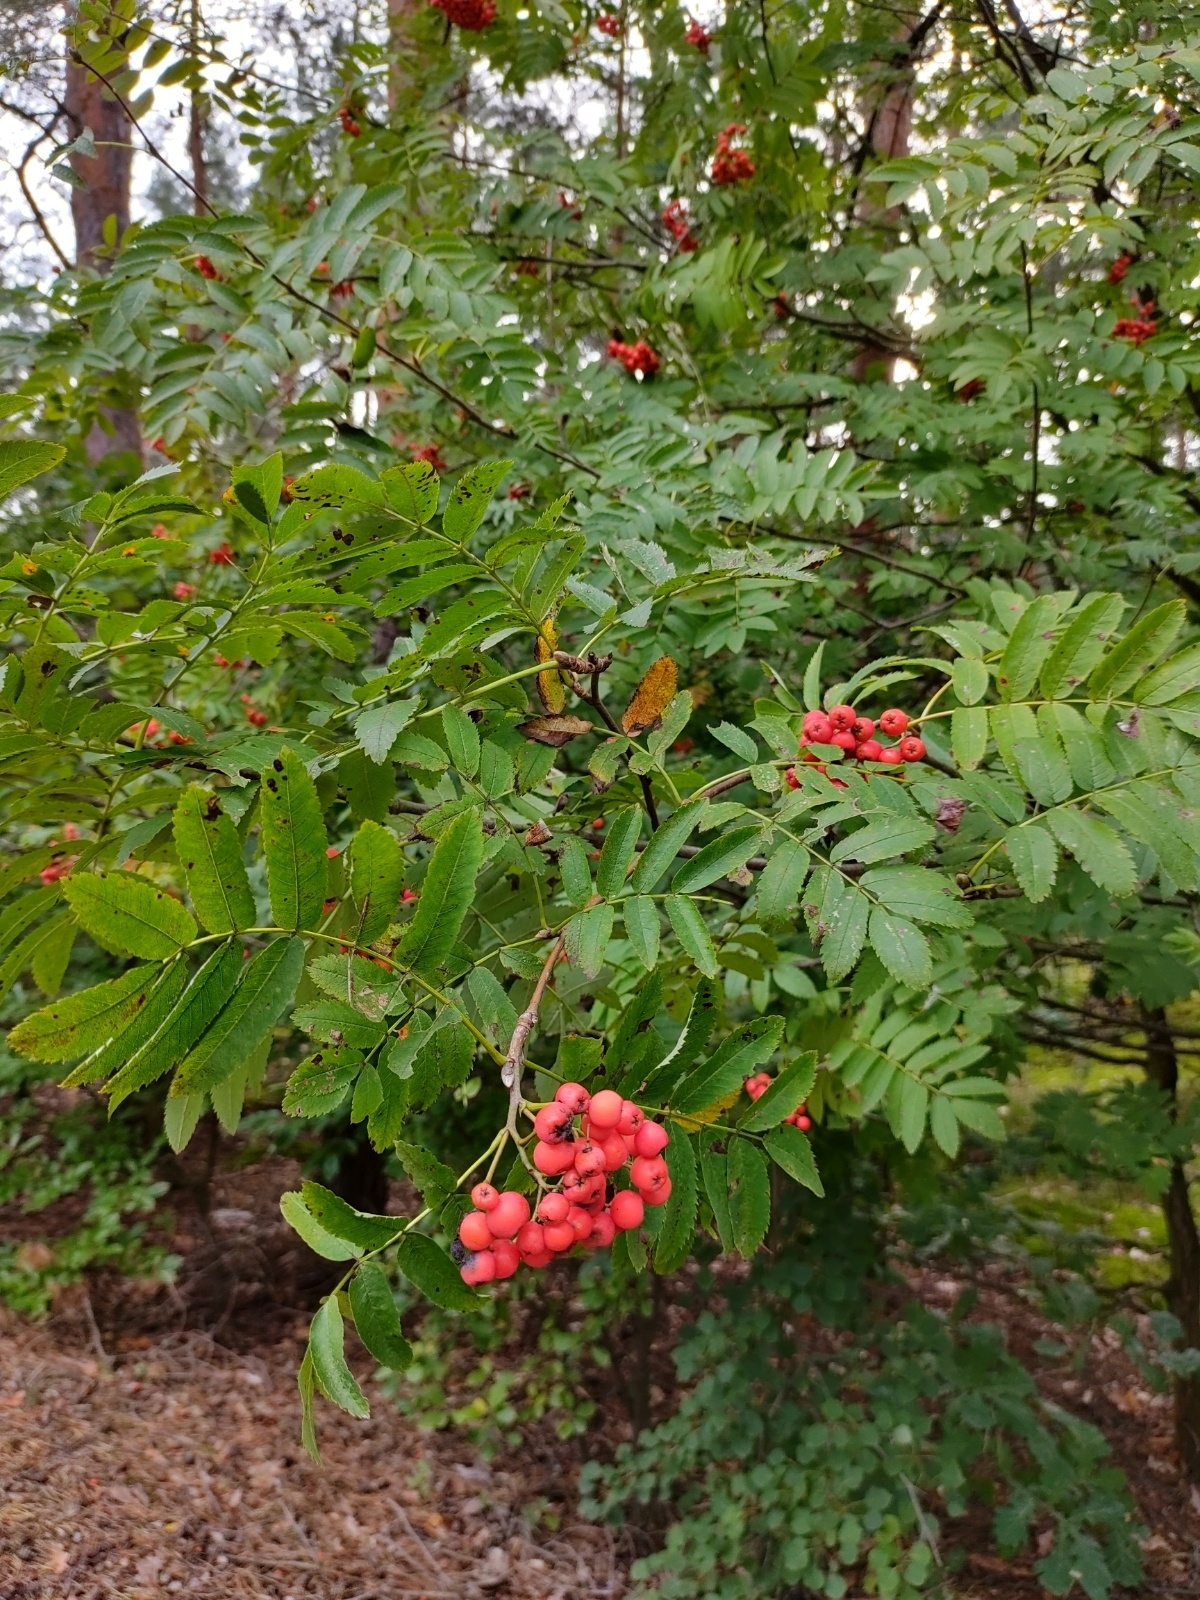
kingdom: Plantae
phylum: Tracheophyta
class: Magnoliopsida
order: Rosales
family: Rosaceae
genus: Sorbus
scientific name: Sorbus aucuparia
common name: Rowan
